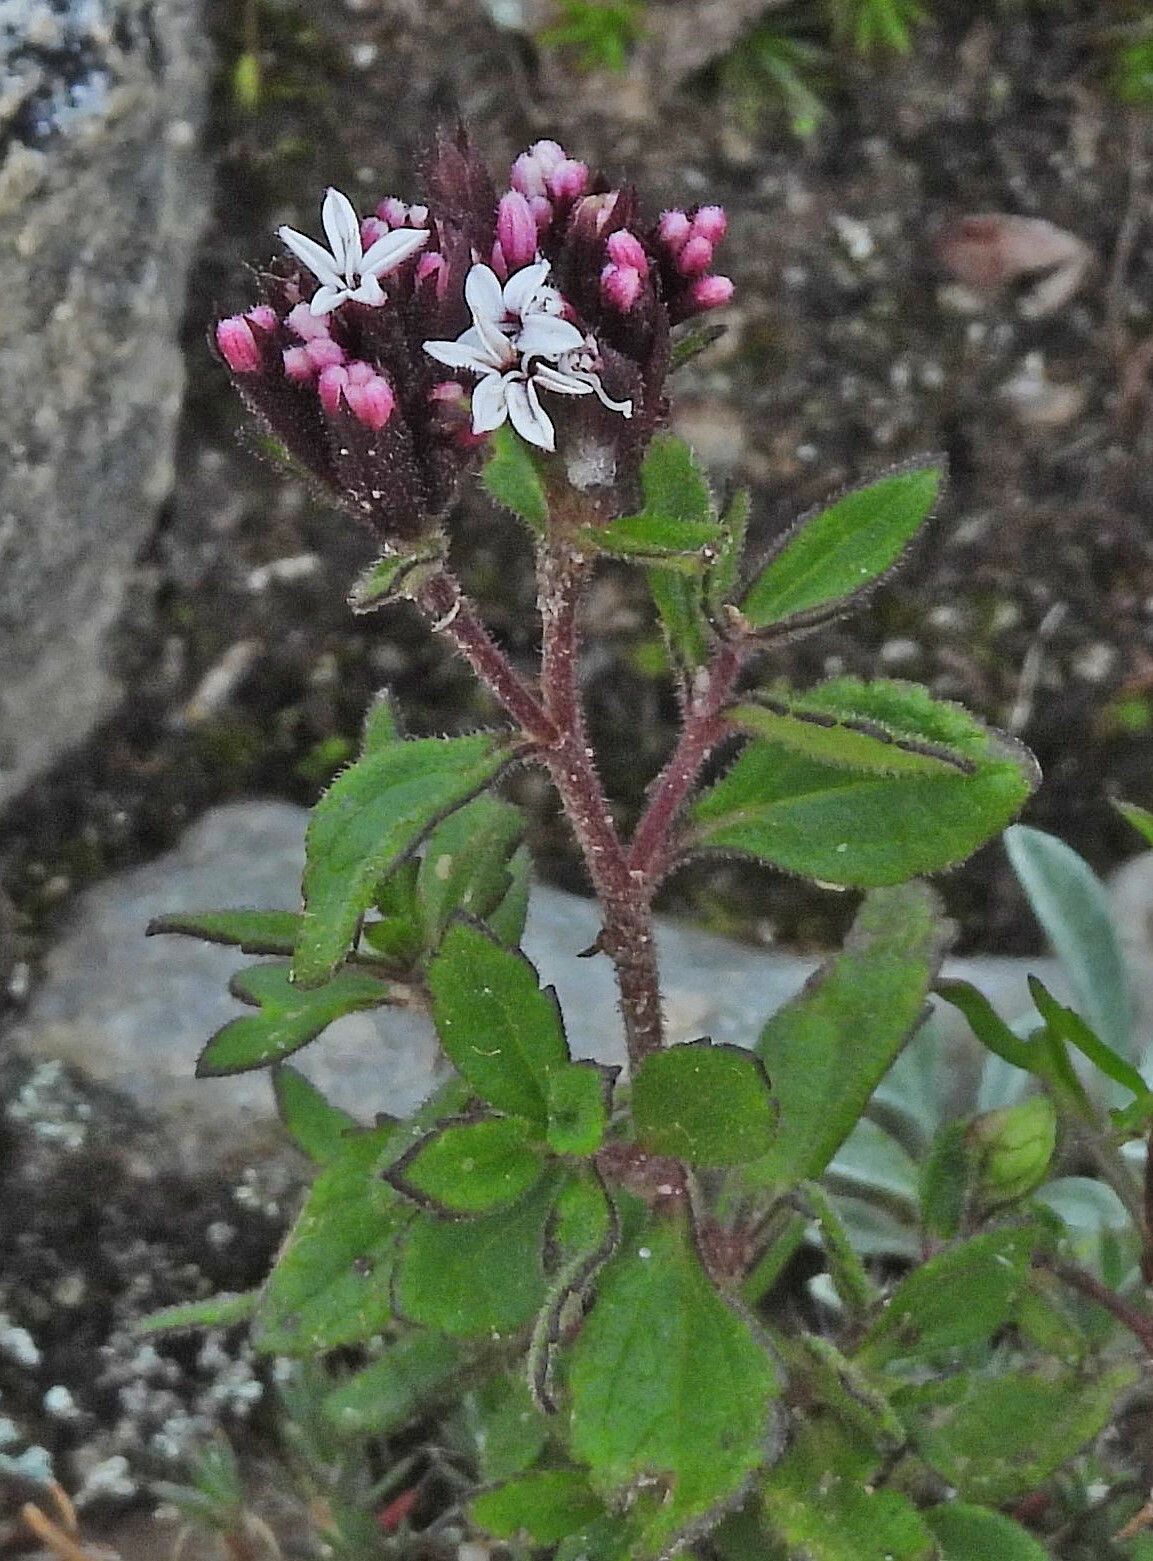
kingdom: Plantae
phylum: Tracheophyta
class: Magnoliopsida
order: Asterales
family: Asteraceae
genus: Stevia
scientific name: Stevia chamaedrys
